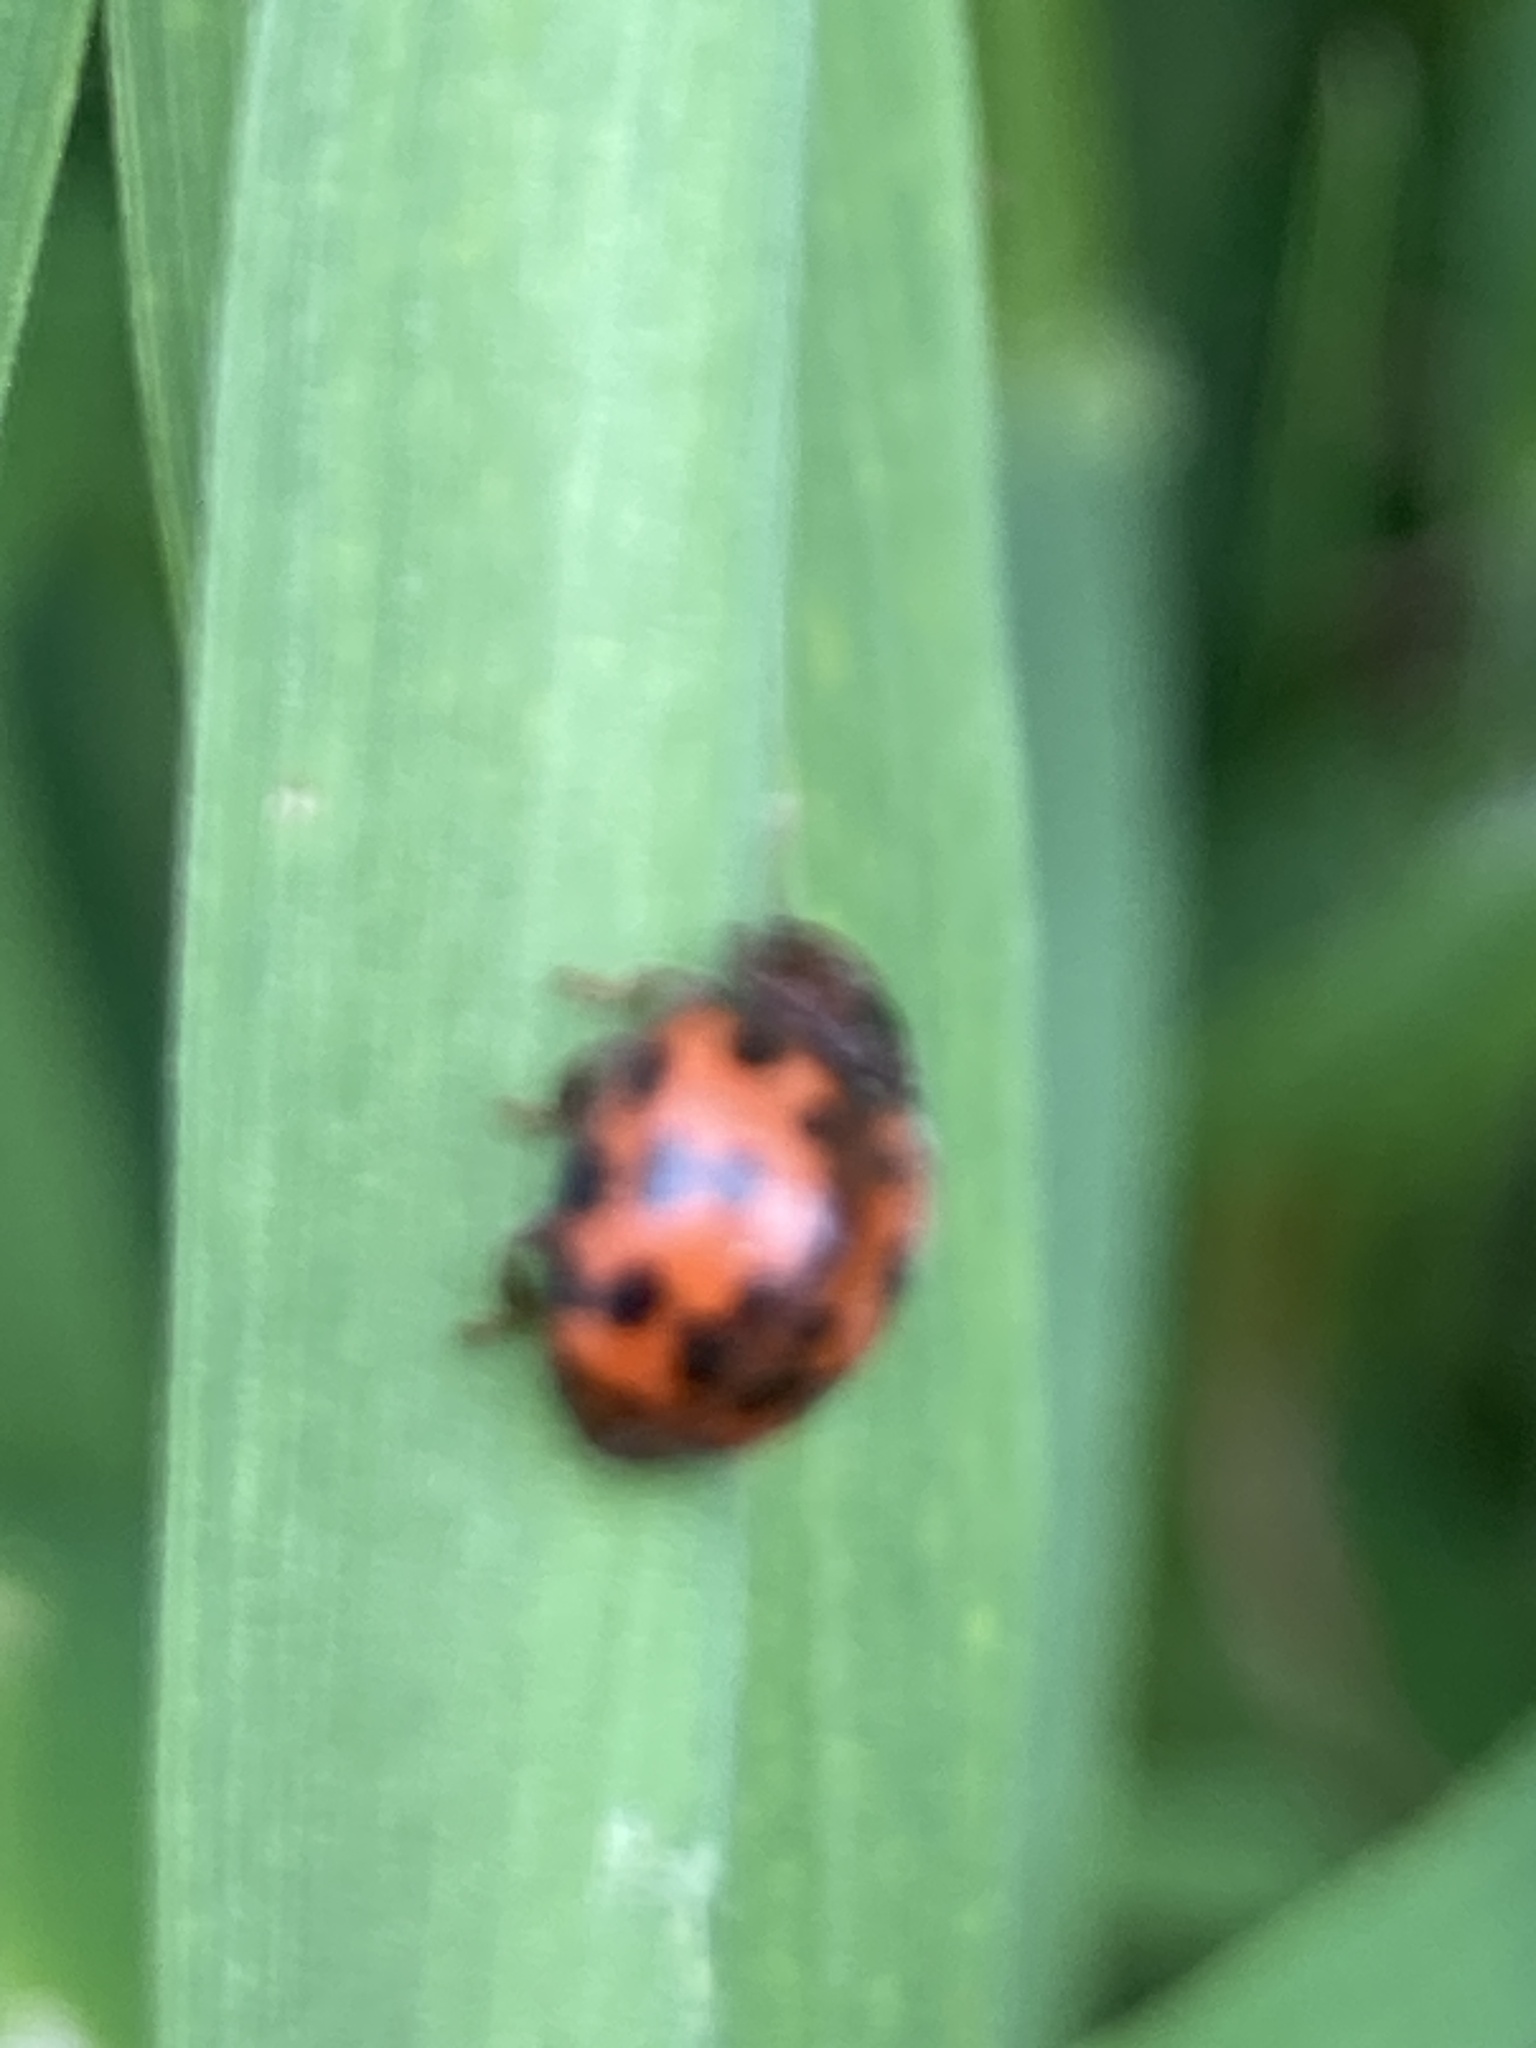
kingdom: Animalia
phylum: Arthropoda
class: Insecta
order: Coleoptera
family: Coccinellidae
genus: Subcoccinella
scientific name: Subcoccinella vigintiquatuorpunctata
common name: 24-spot ladybird
